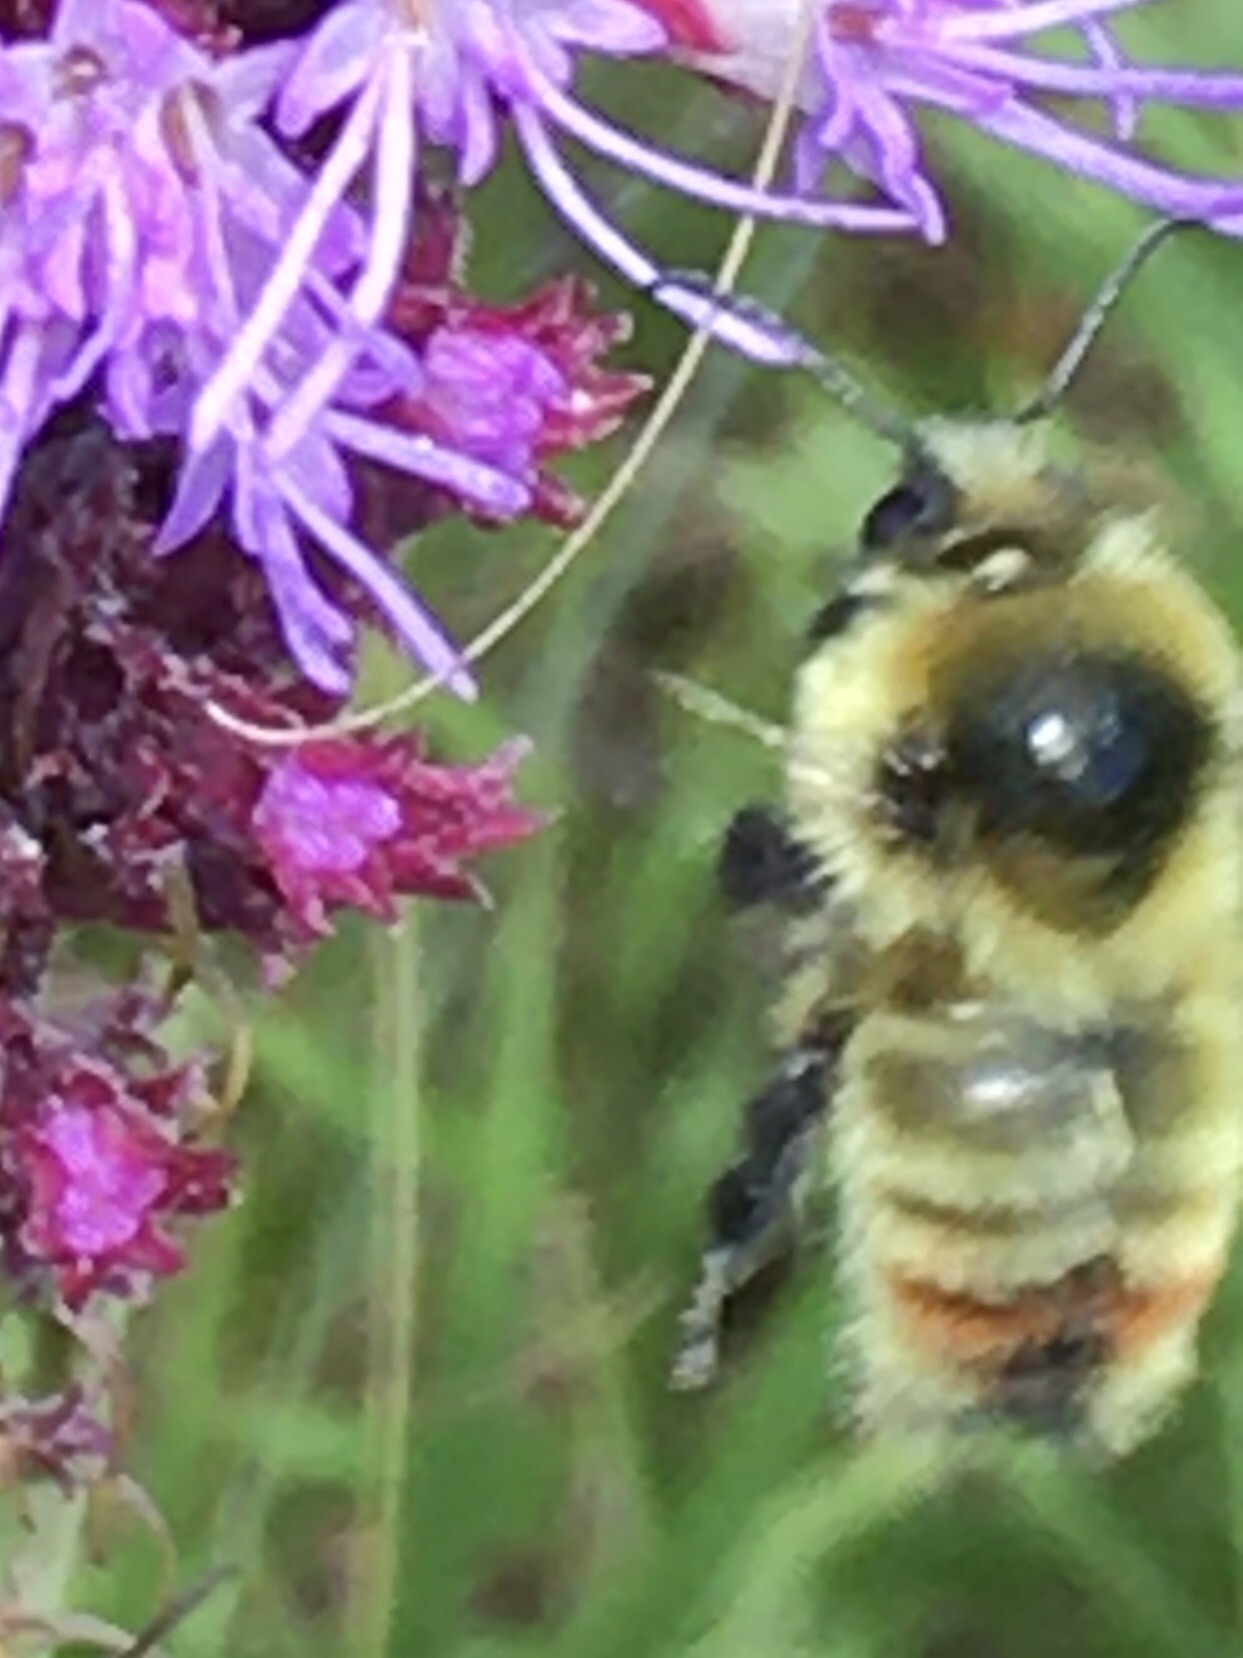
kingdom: Animalia
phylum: Arthropoda
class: Insecta
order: Hymenoptera
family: Apidae
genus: Bombus
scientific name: Bombus rufocinctus
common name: Red-belted bumble bee
